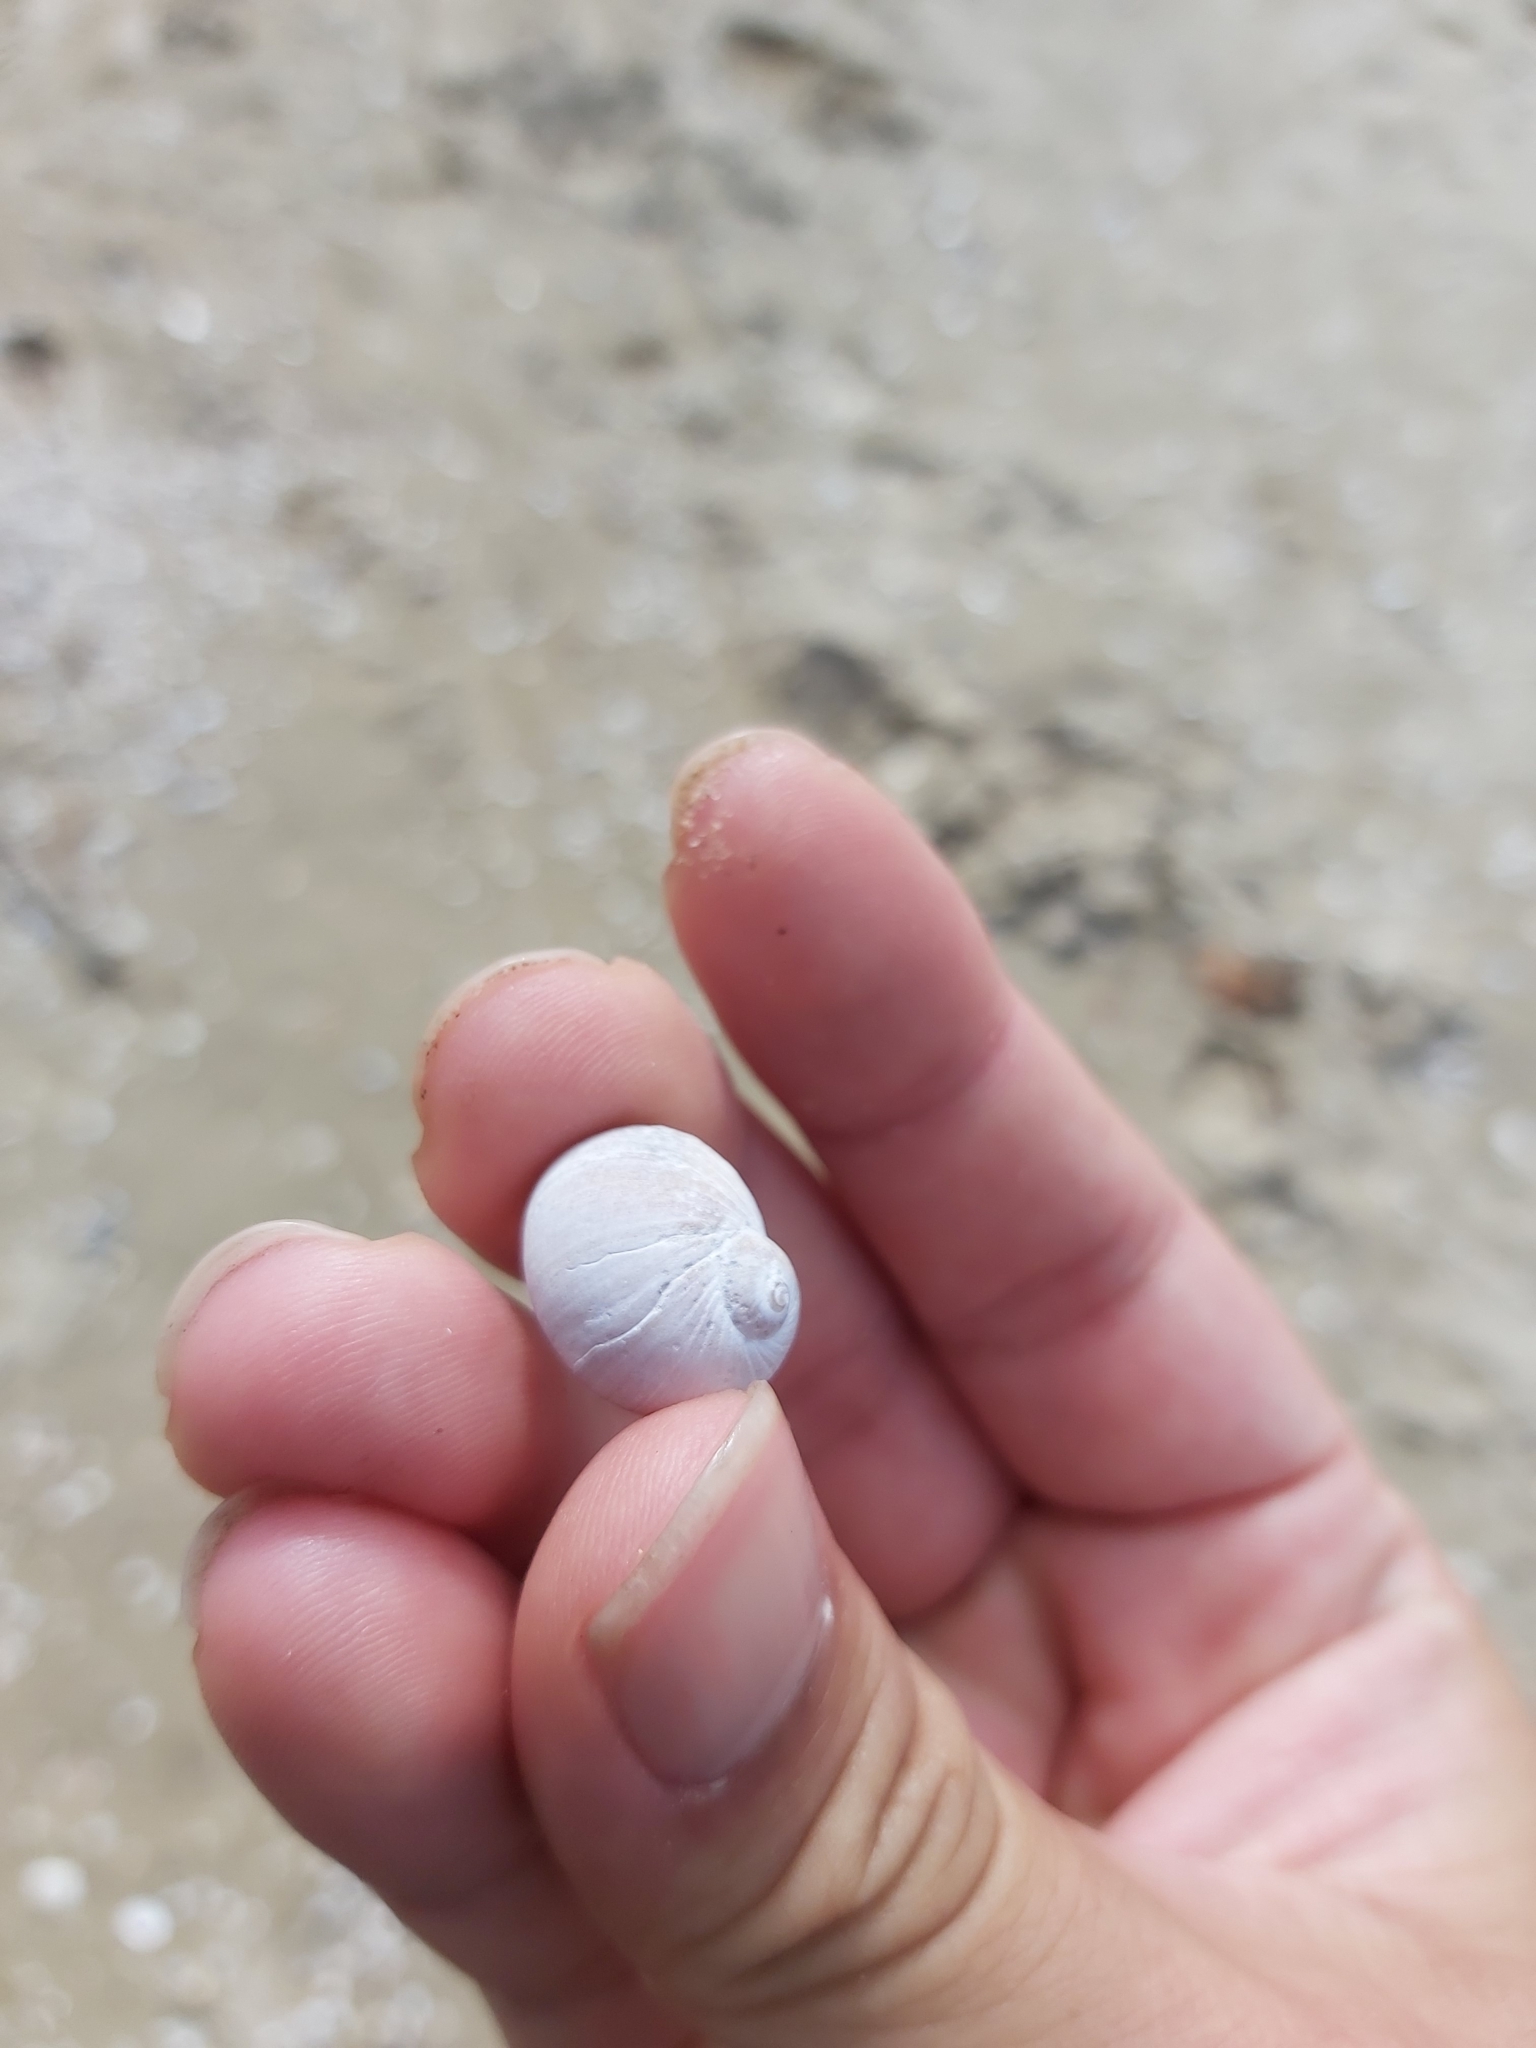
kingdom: Animalia
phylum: Mollusca
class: Gastropoda
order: Littorinimorpha
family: Naticidae
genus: Notocochlis
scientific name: Notocochlis gualteriana
